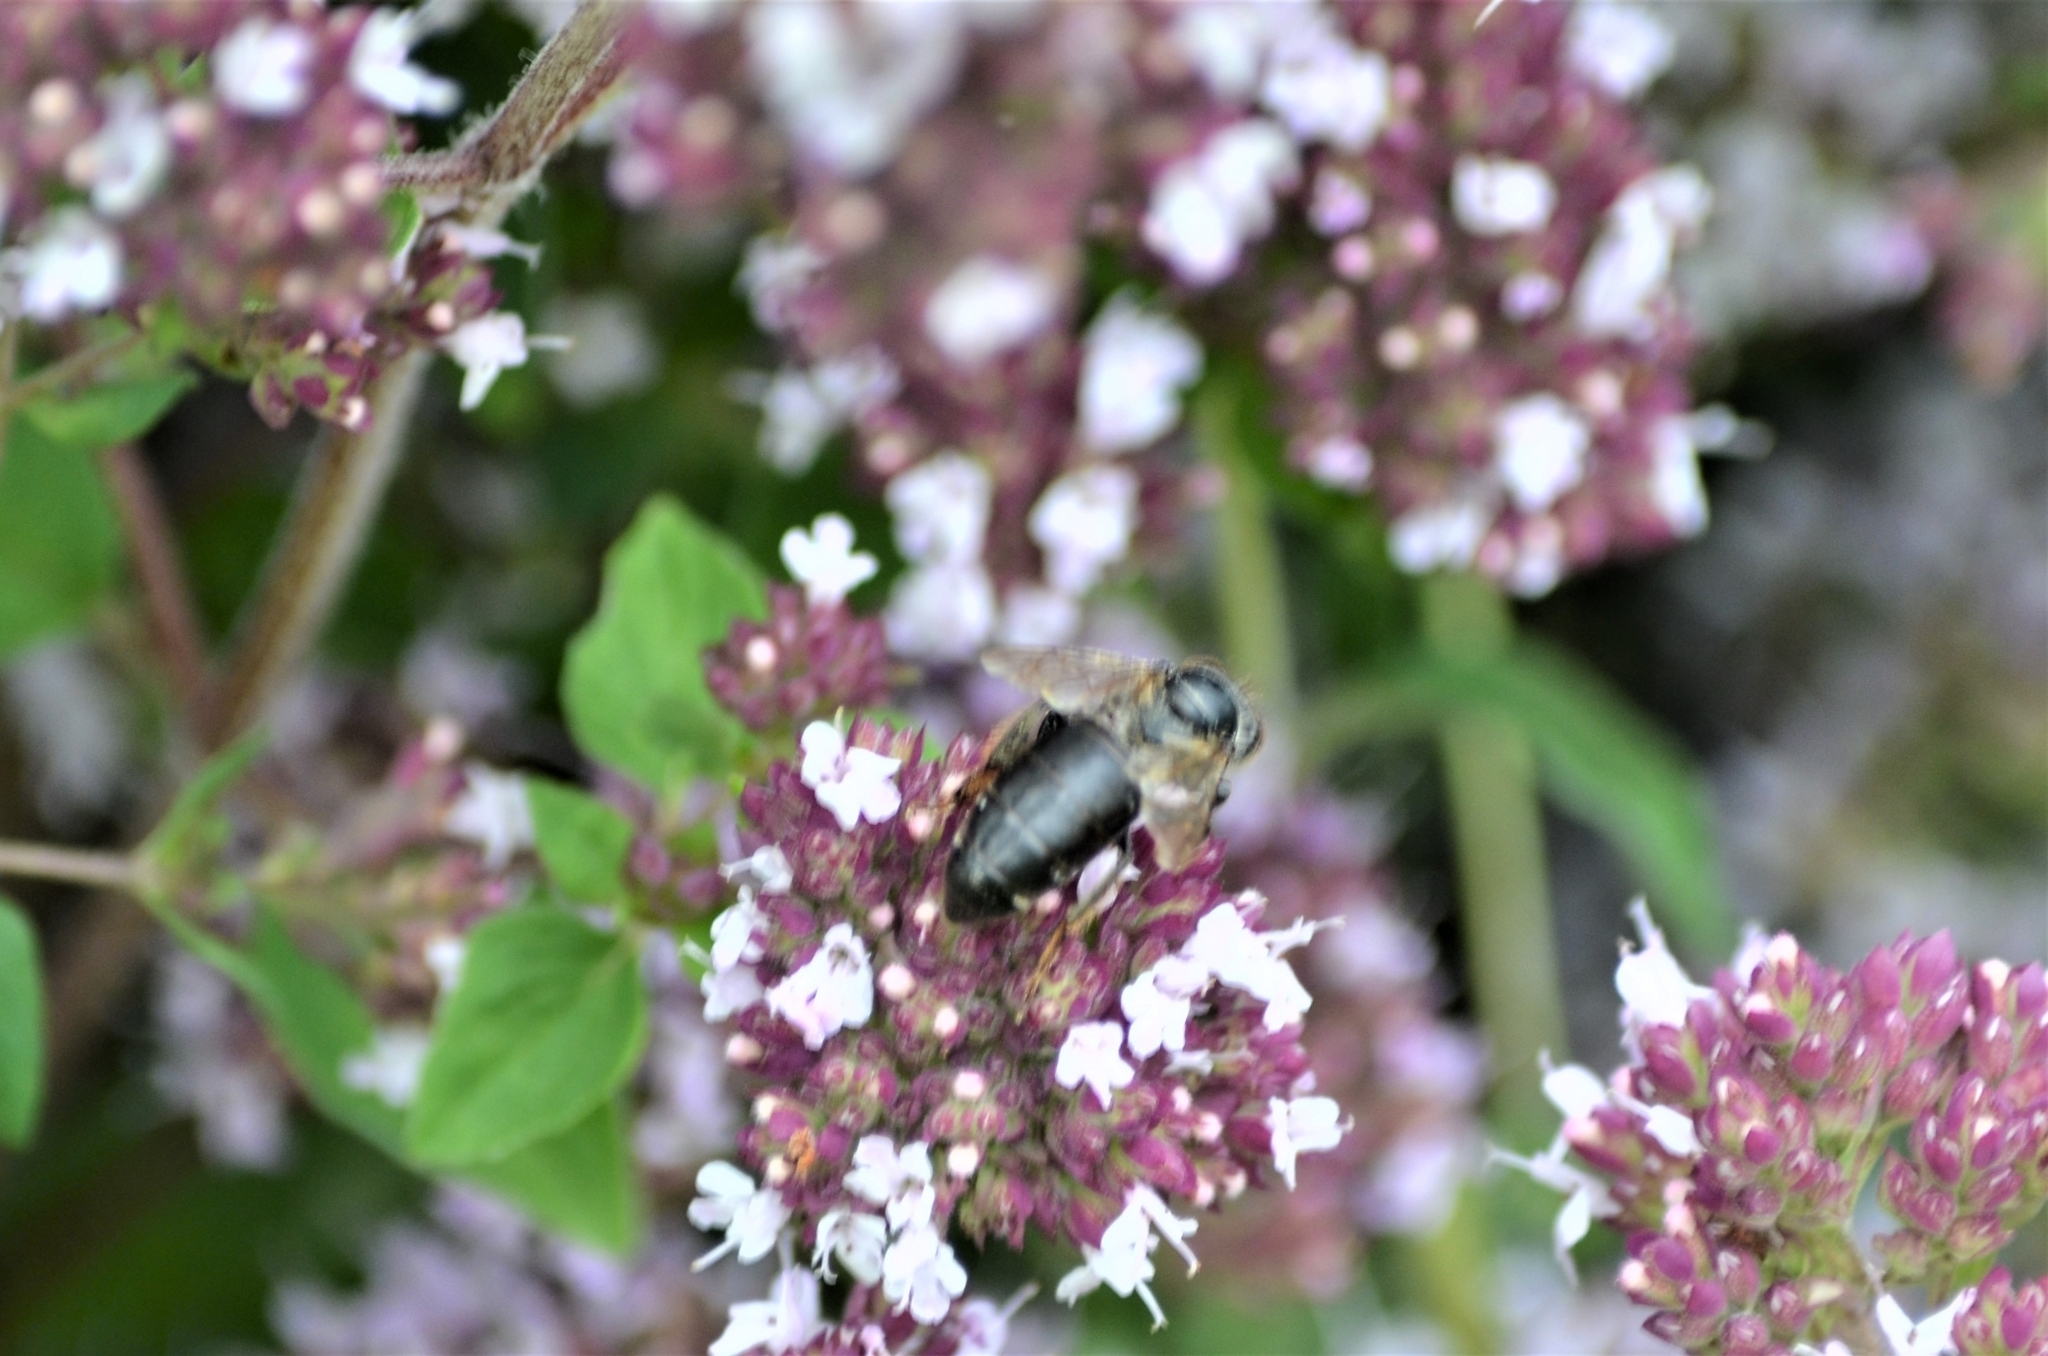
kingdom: Animalia
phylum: Arthropoda
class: Insecta
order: Hymenoptera
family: Apidae
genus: Apis
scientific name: Apis mellifera
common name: Honey bee
